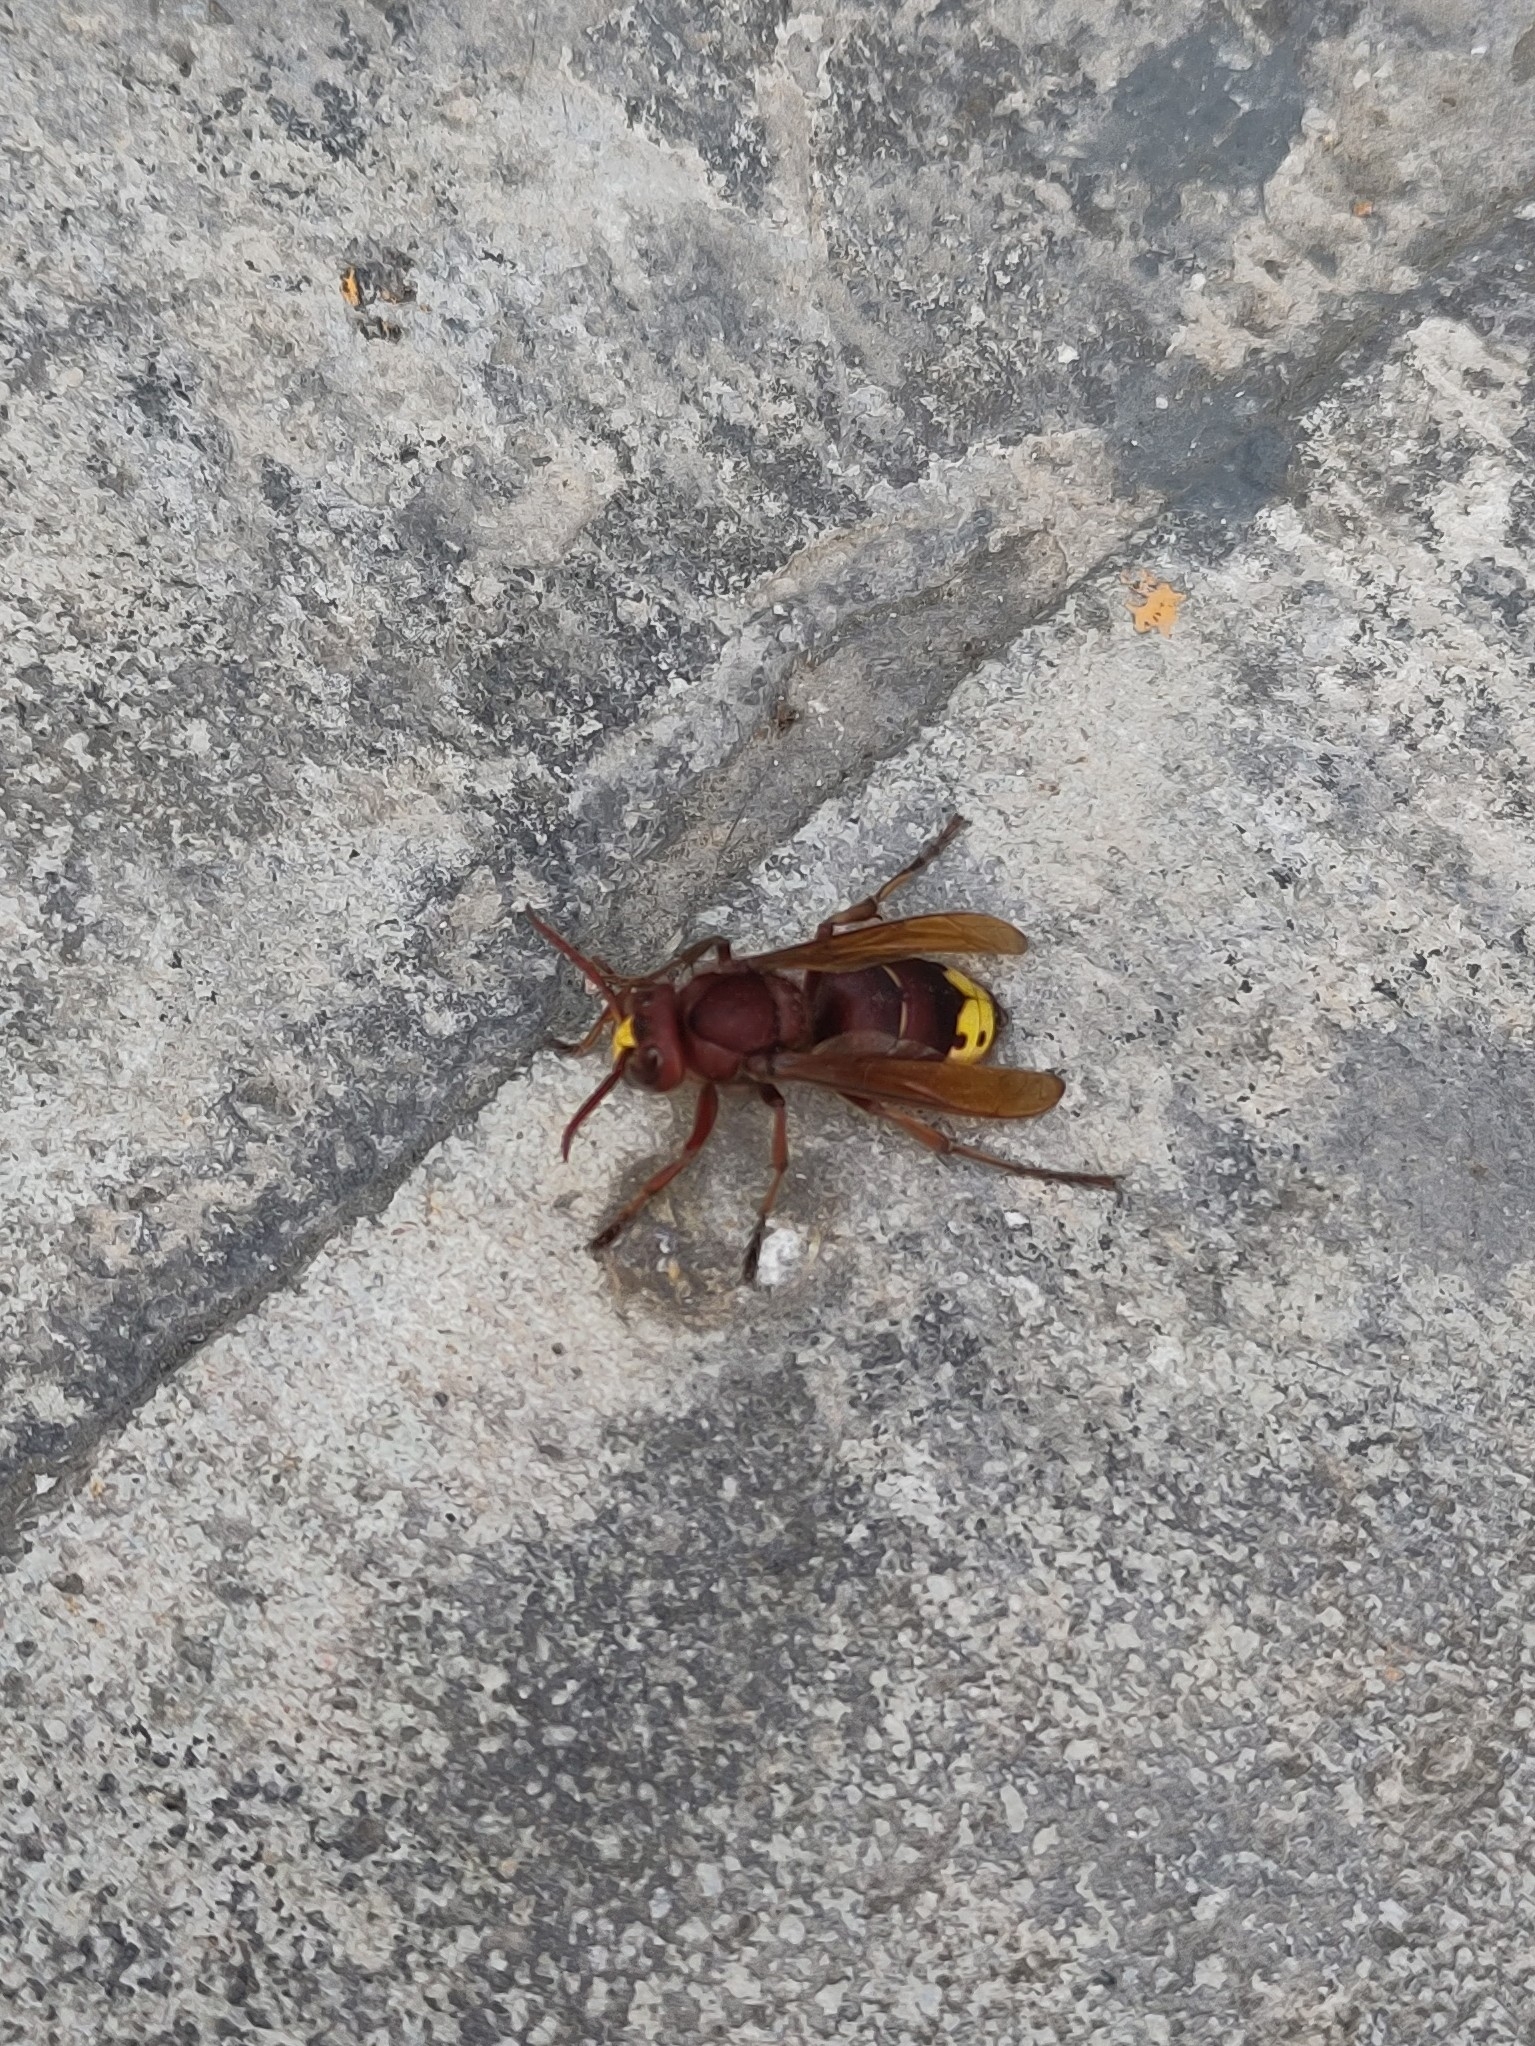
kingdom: Animalia
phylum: Arthropoda
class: Insecta
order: Hymenoptera
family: Vespidae
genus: Vespa
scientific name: Vespa orientalis
